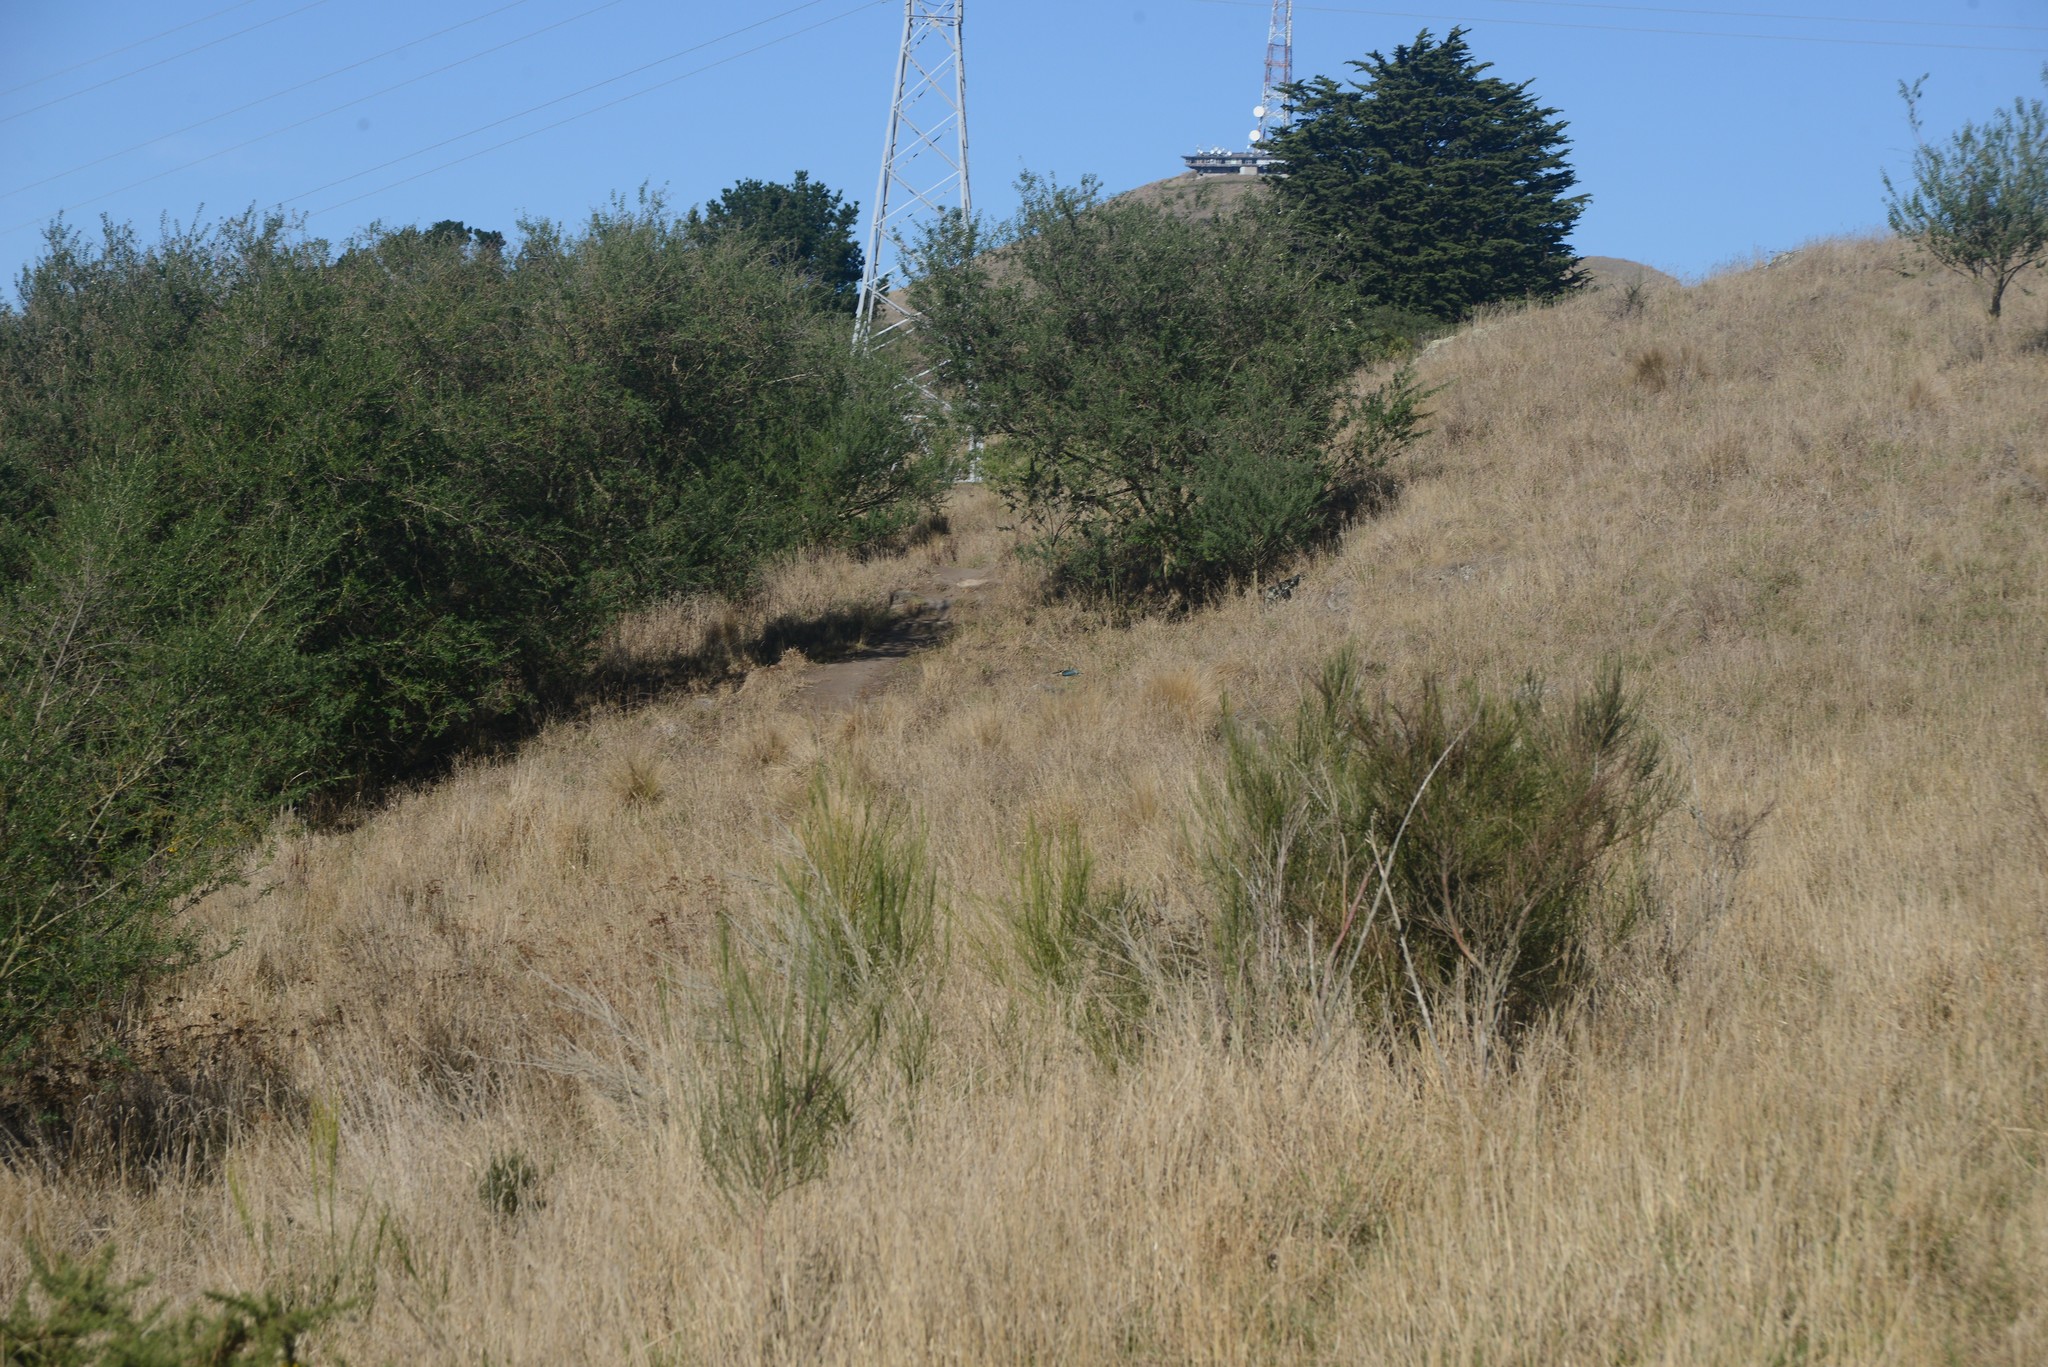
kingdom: Plantae
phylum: Tracheophyta
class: Magnoliopsida
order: Fabales
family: Fabaceae
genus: Chamaecytisus
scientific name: Chamaecytisus prolifer
